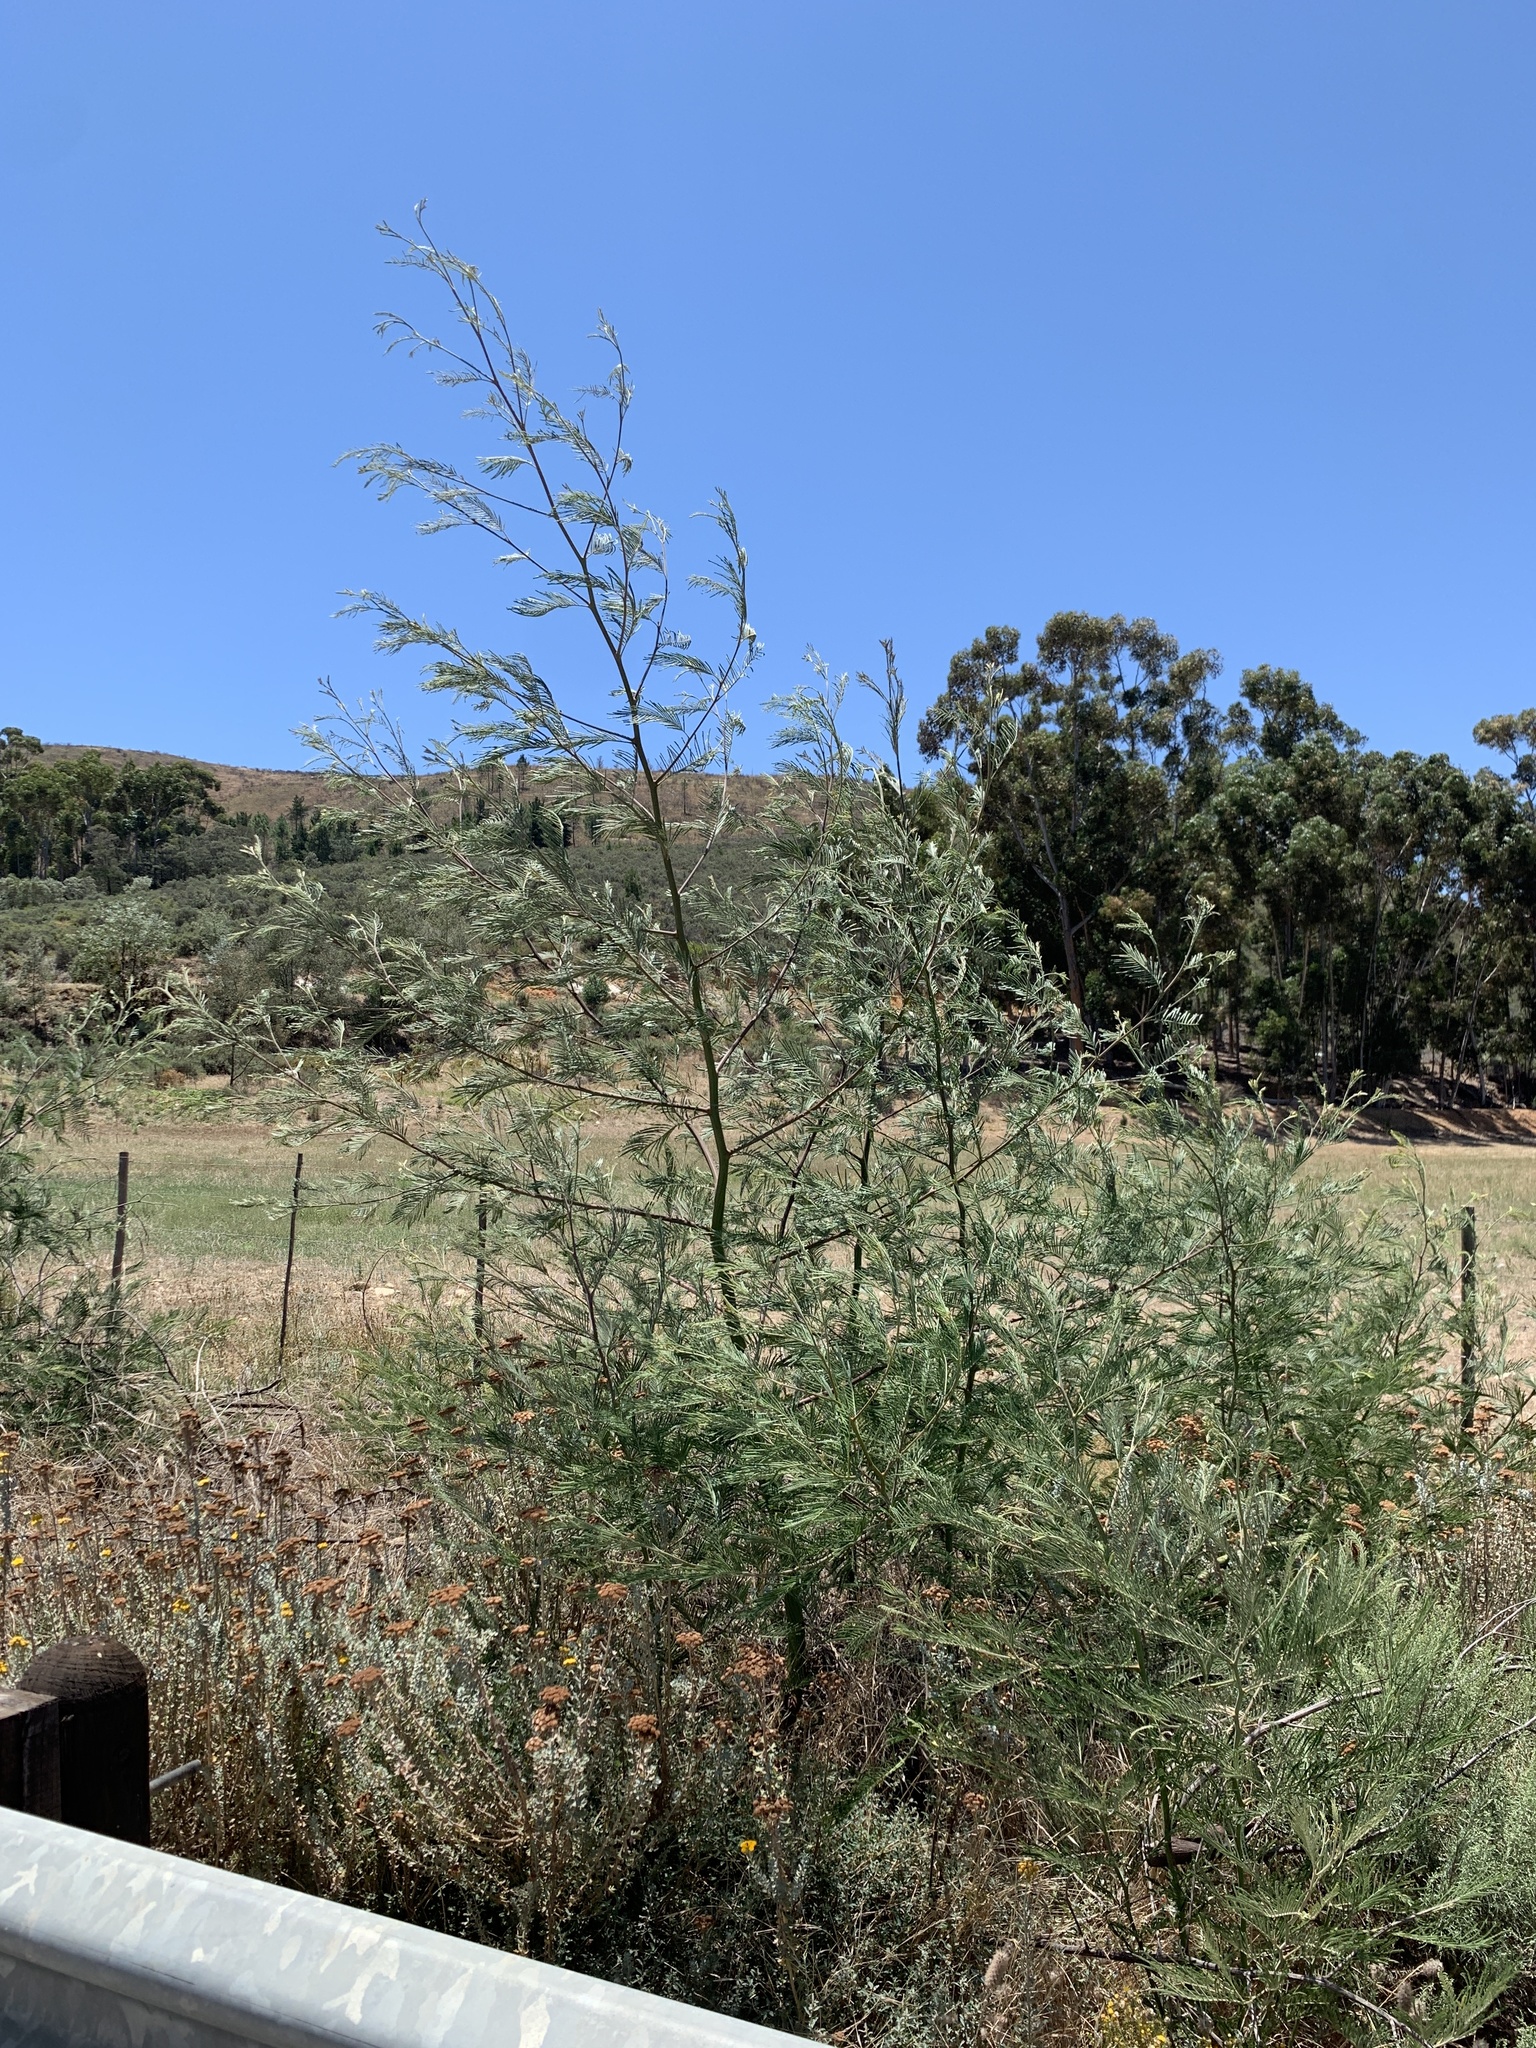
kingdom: Plantae
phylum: Tracheophyta
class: Magnoliopsida
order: Fabales
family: Fabaceae
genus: Acacia
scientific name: Acacia mearnsii
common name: Black wattle
